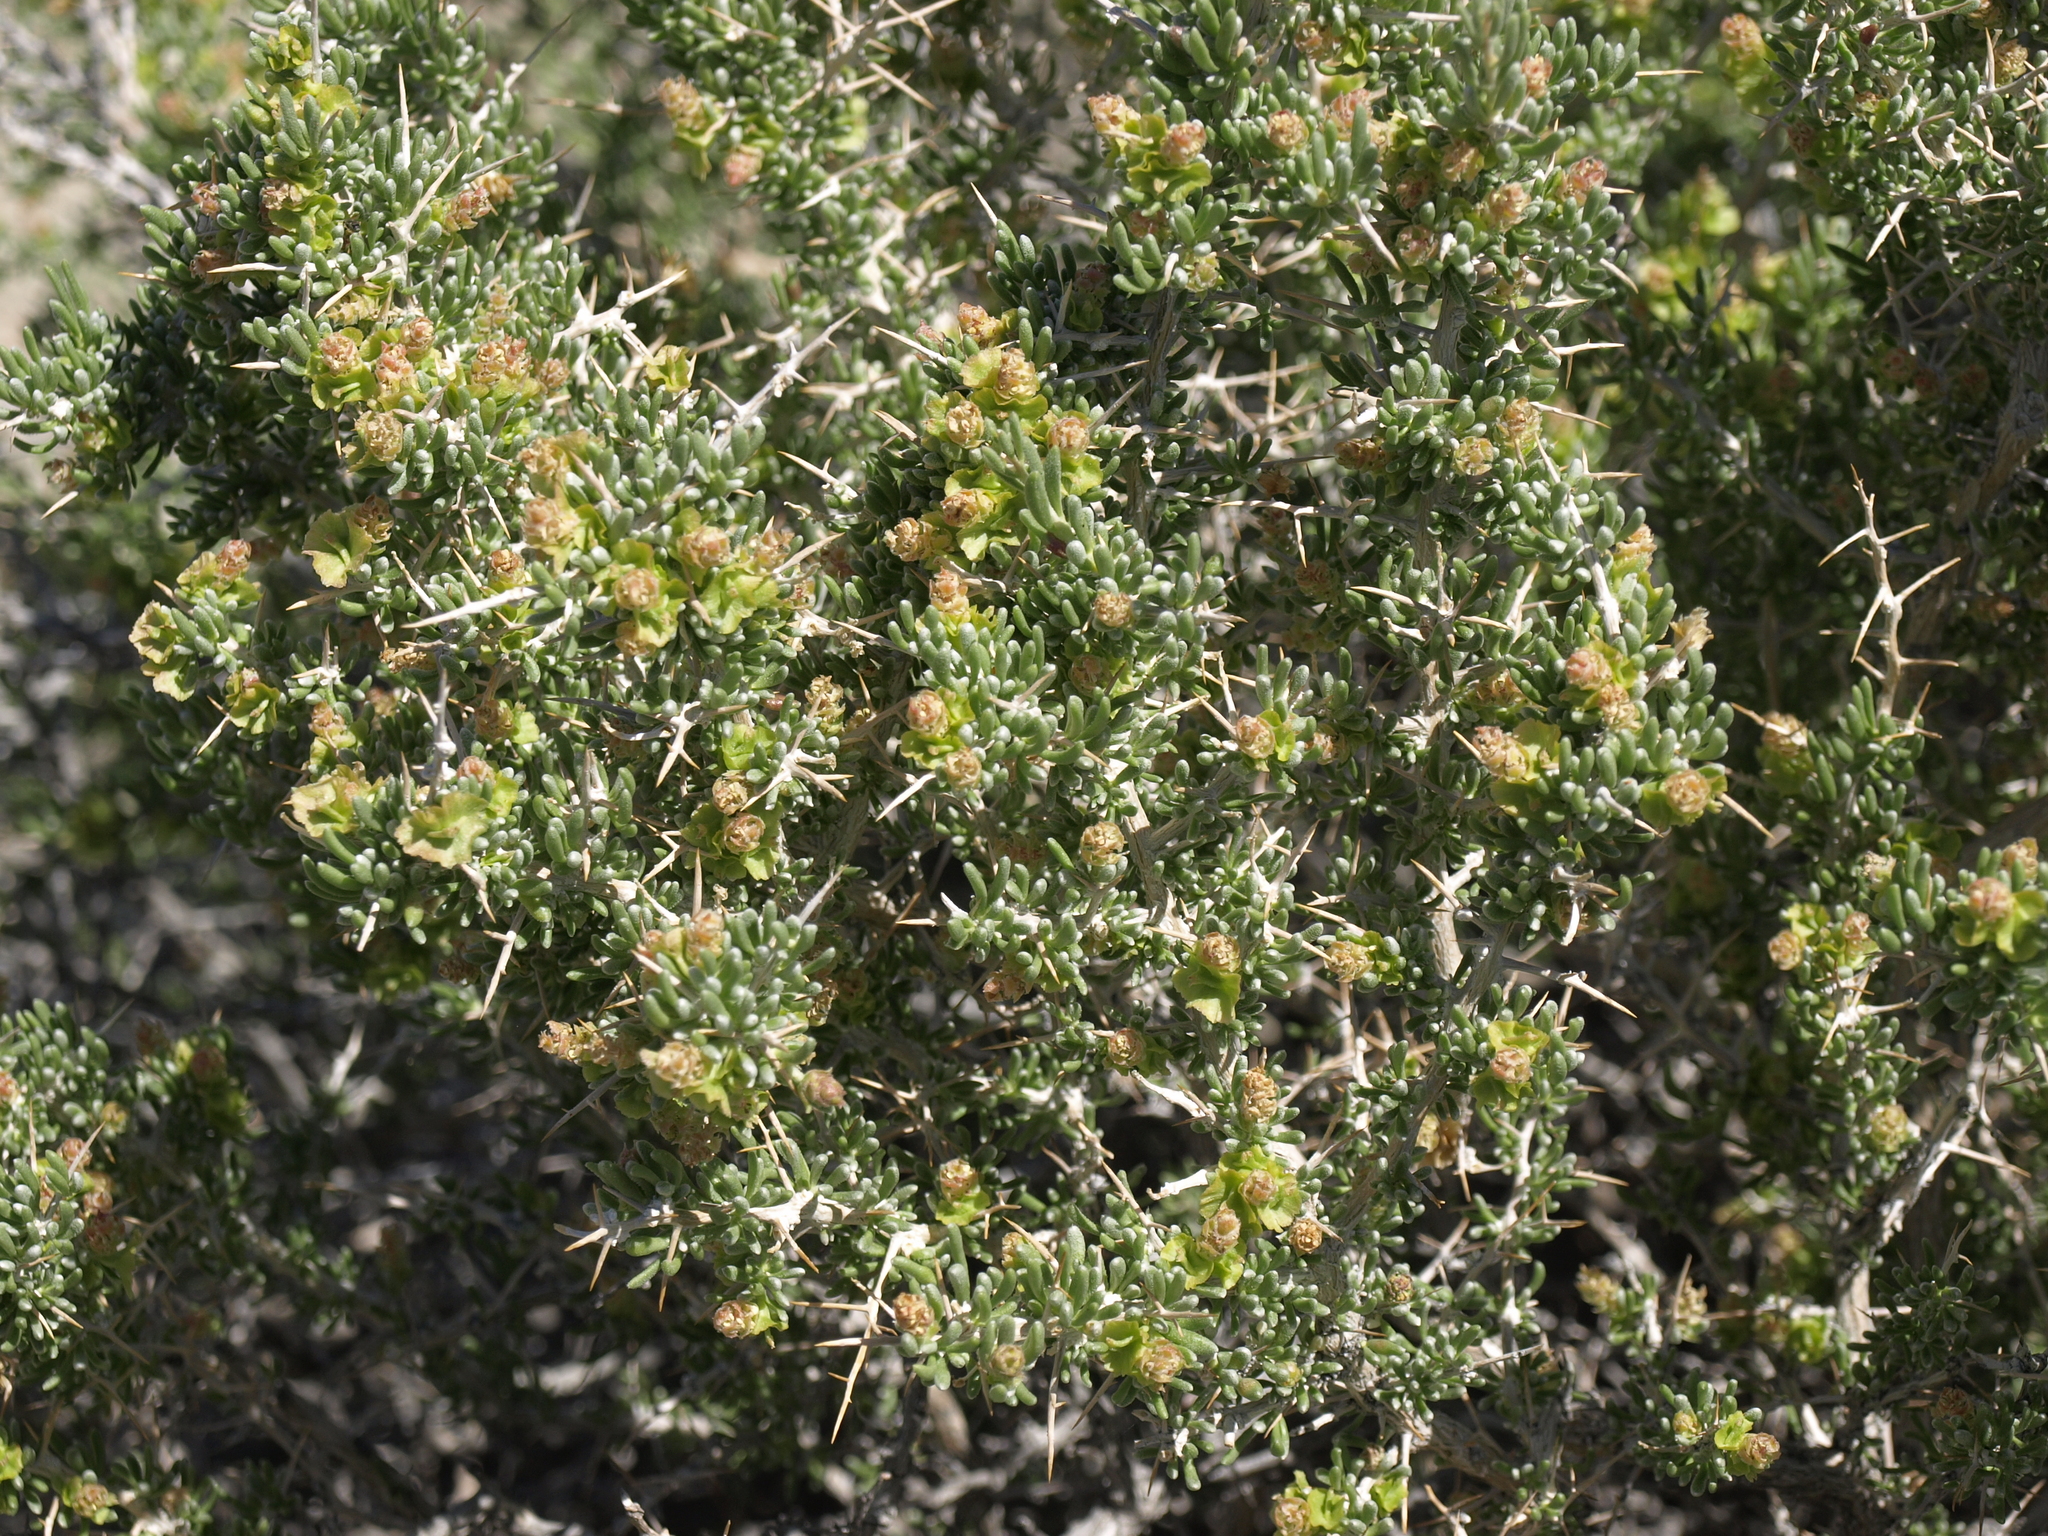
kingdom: Plantae
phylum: Tracheophyta
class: Magnoliopsida
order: Caryophyllales
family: Sarcobataceae
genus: Sarcobatus
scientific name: Sarcobatus baileyi
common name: Bailey greasewood
